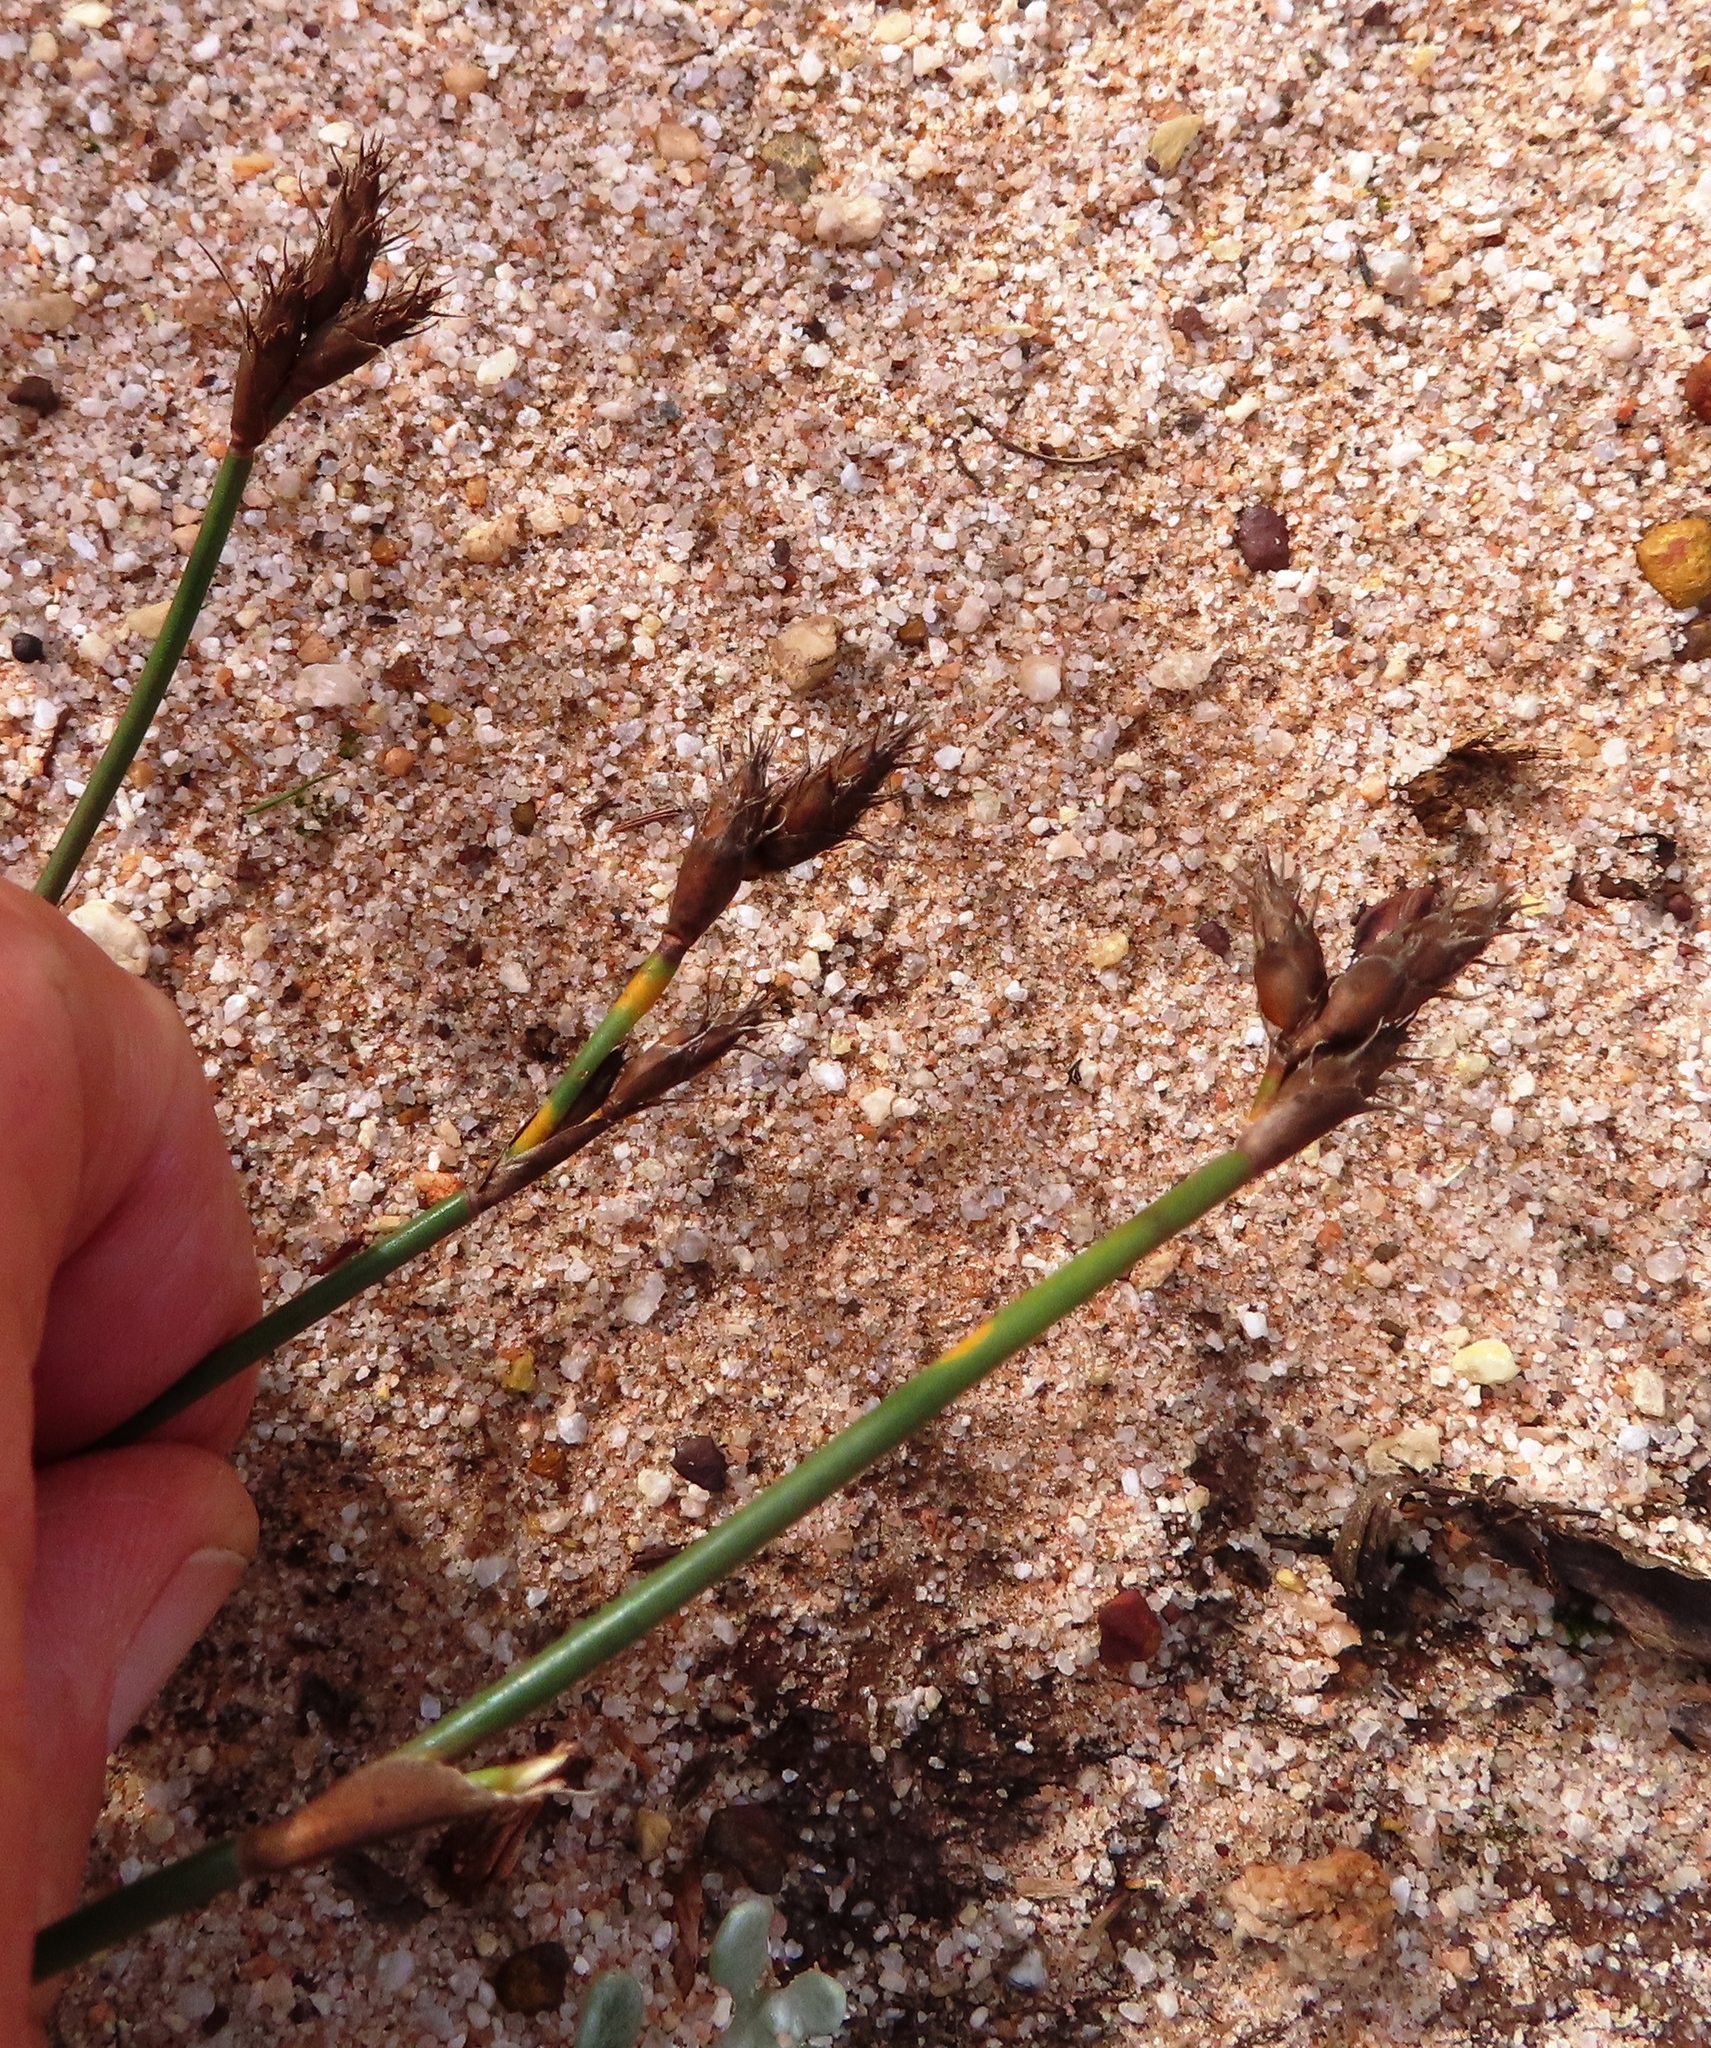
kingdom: Plantae
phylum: Tracheophyta
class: Liliopsida
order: Poales
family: Restionaceae
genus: Restio
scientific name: Restio capensis
